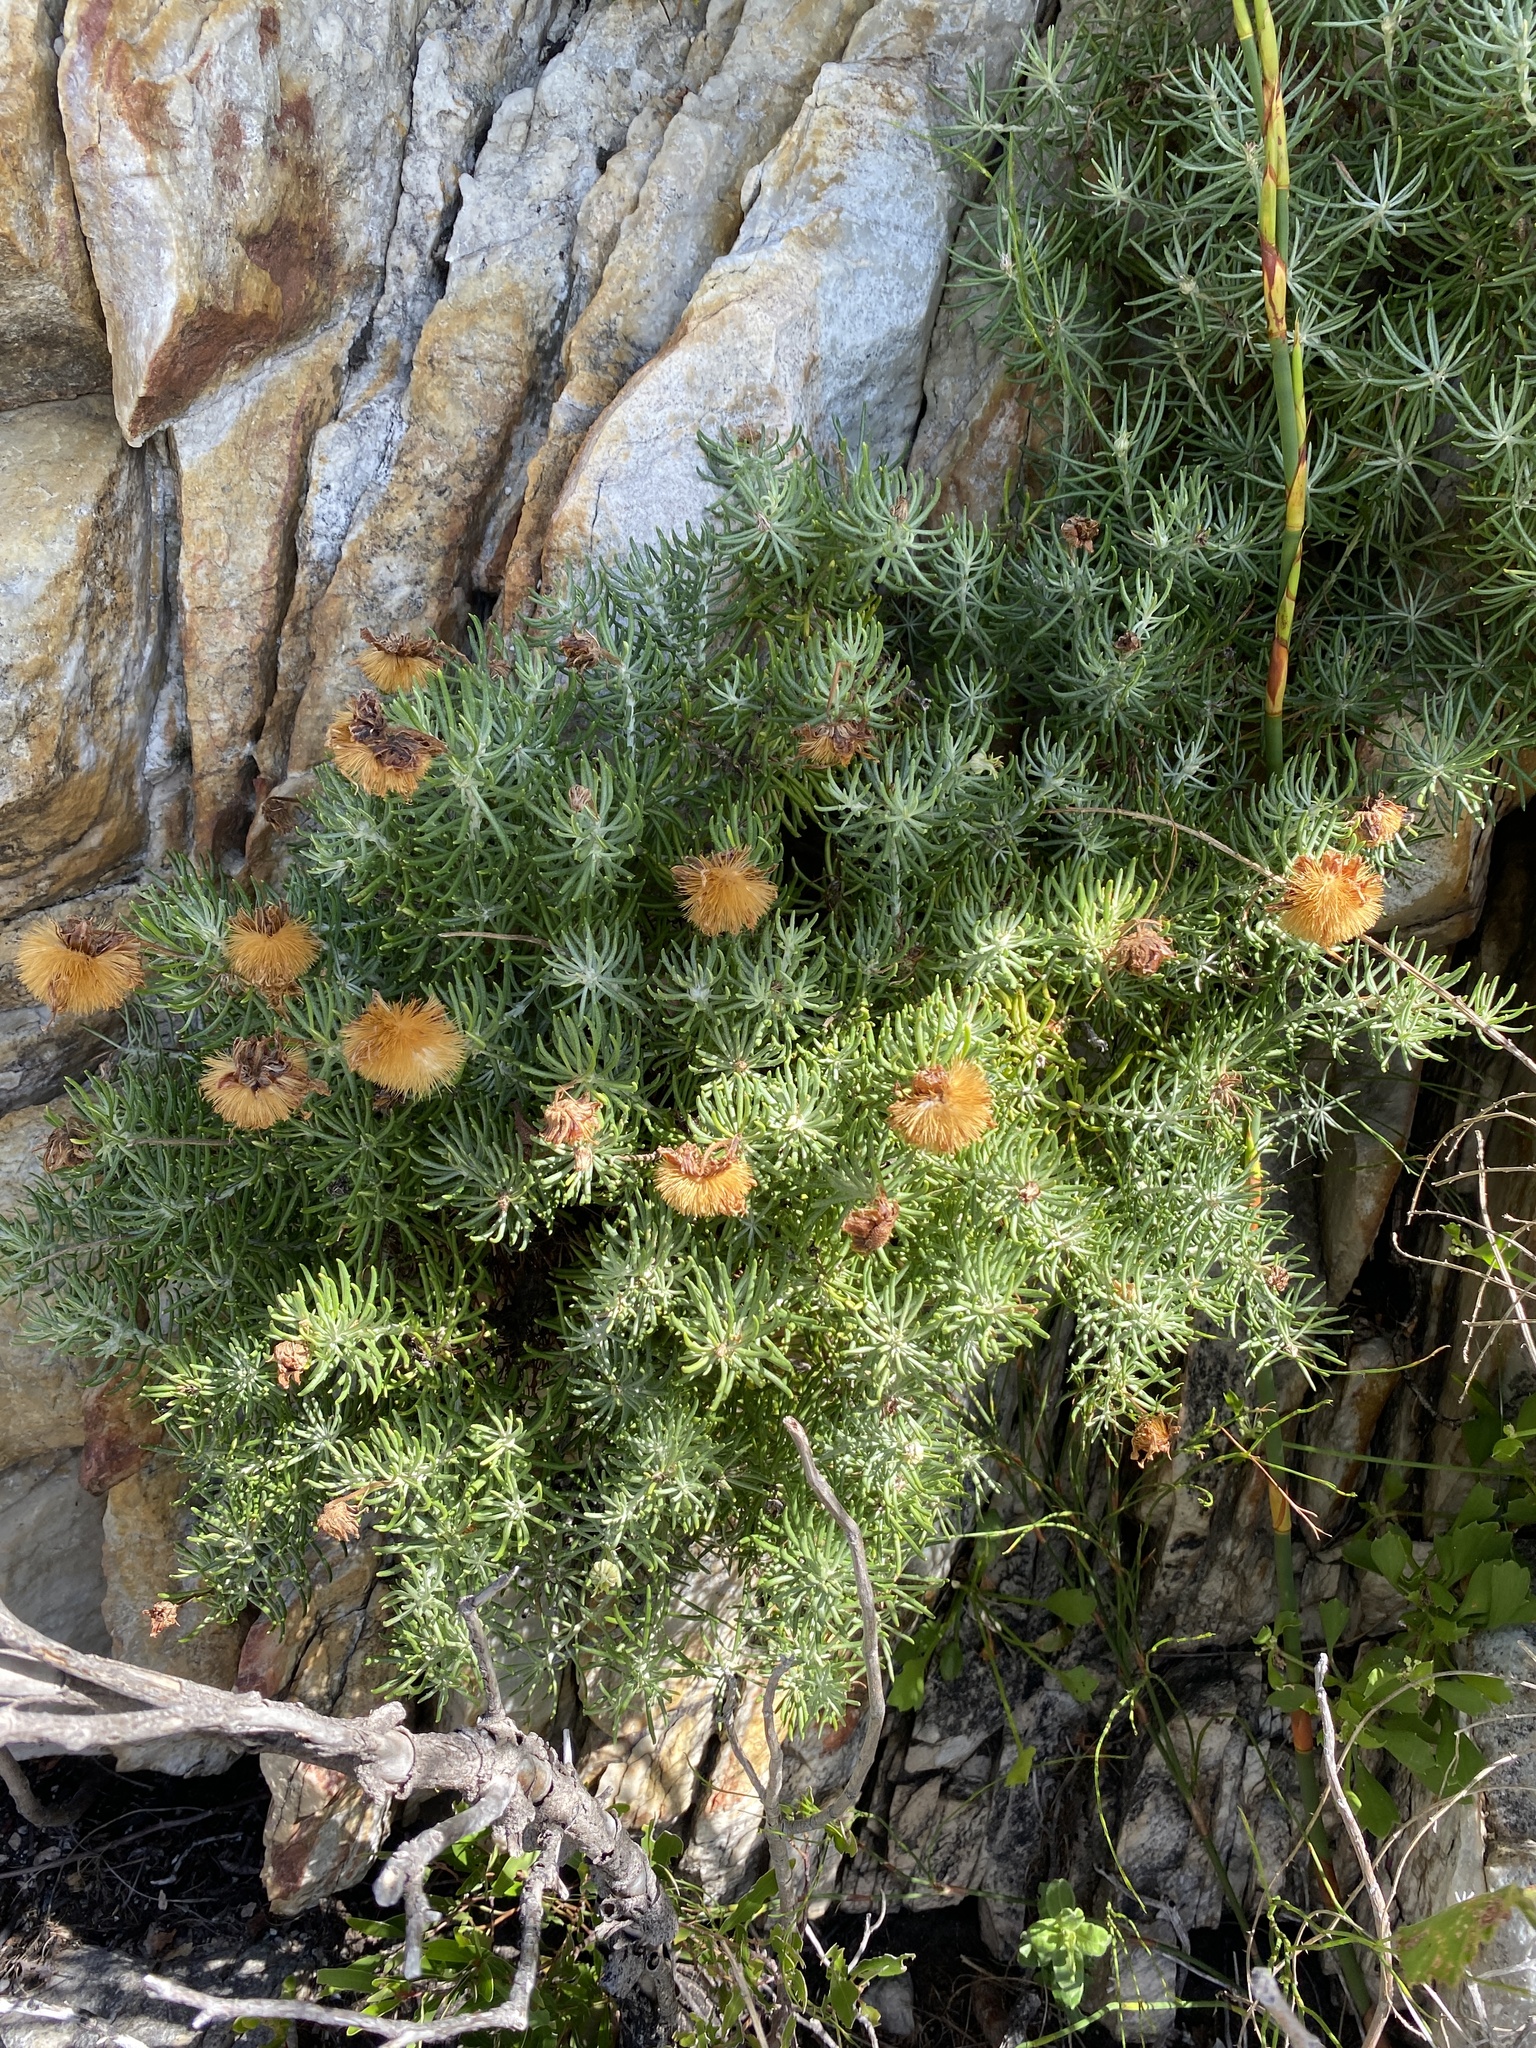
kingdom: Plantae
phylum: Tracheophyta
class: Magnoliopsida
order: Asterales
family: Asteraceae
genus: Heterolepis
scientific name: Heterolepis aliena
